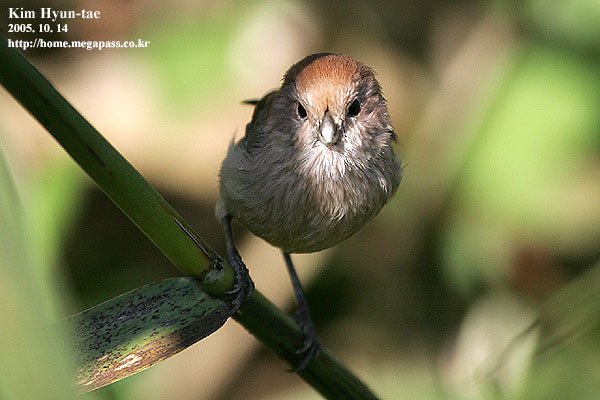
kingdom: Animalia
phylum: Chordata
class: Aves
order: Passeriformes
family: Sylviidae
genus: Sinosuthora
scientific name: Sinosuthora webbiana
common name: Vinous-throated parrotbill
